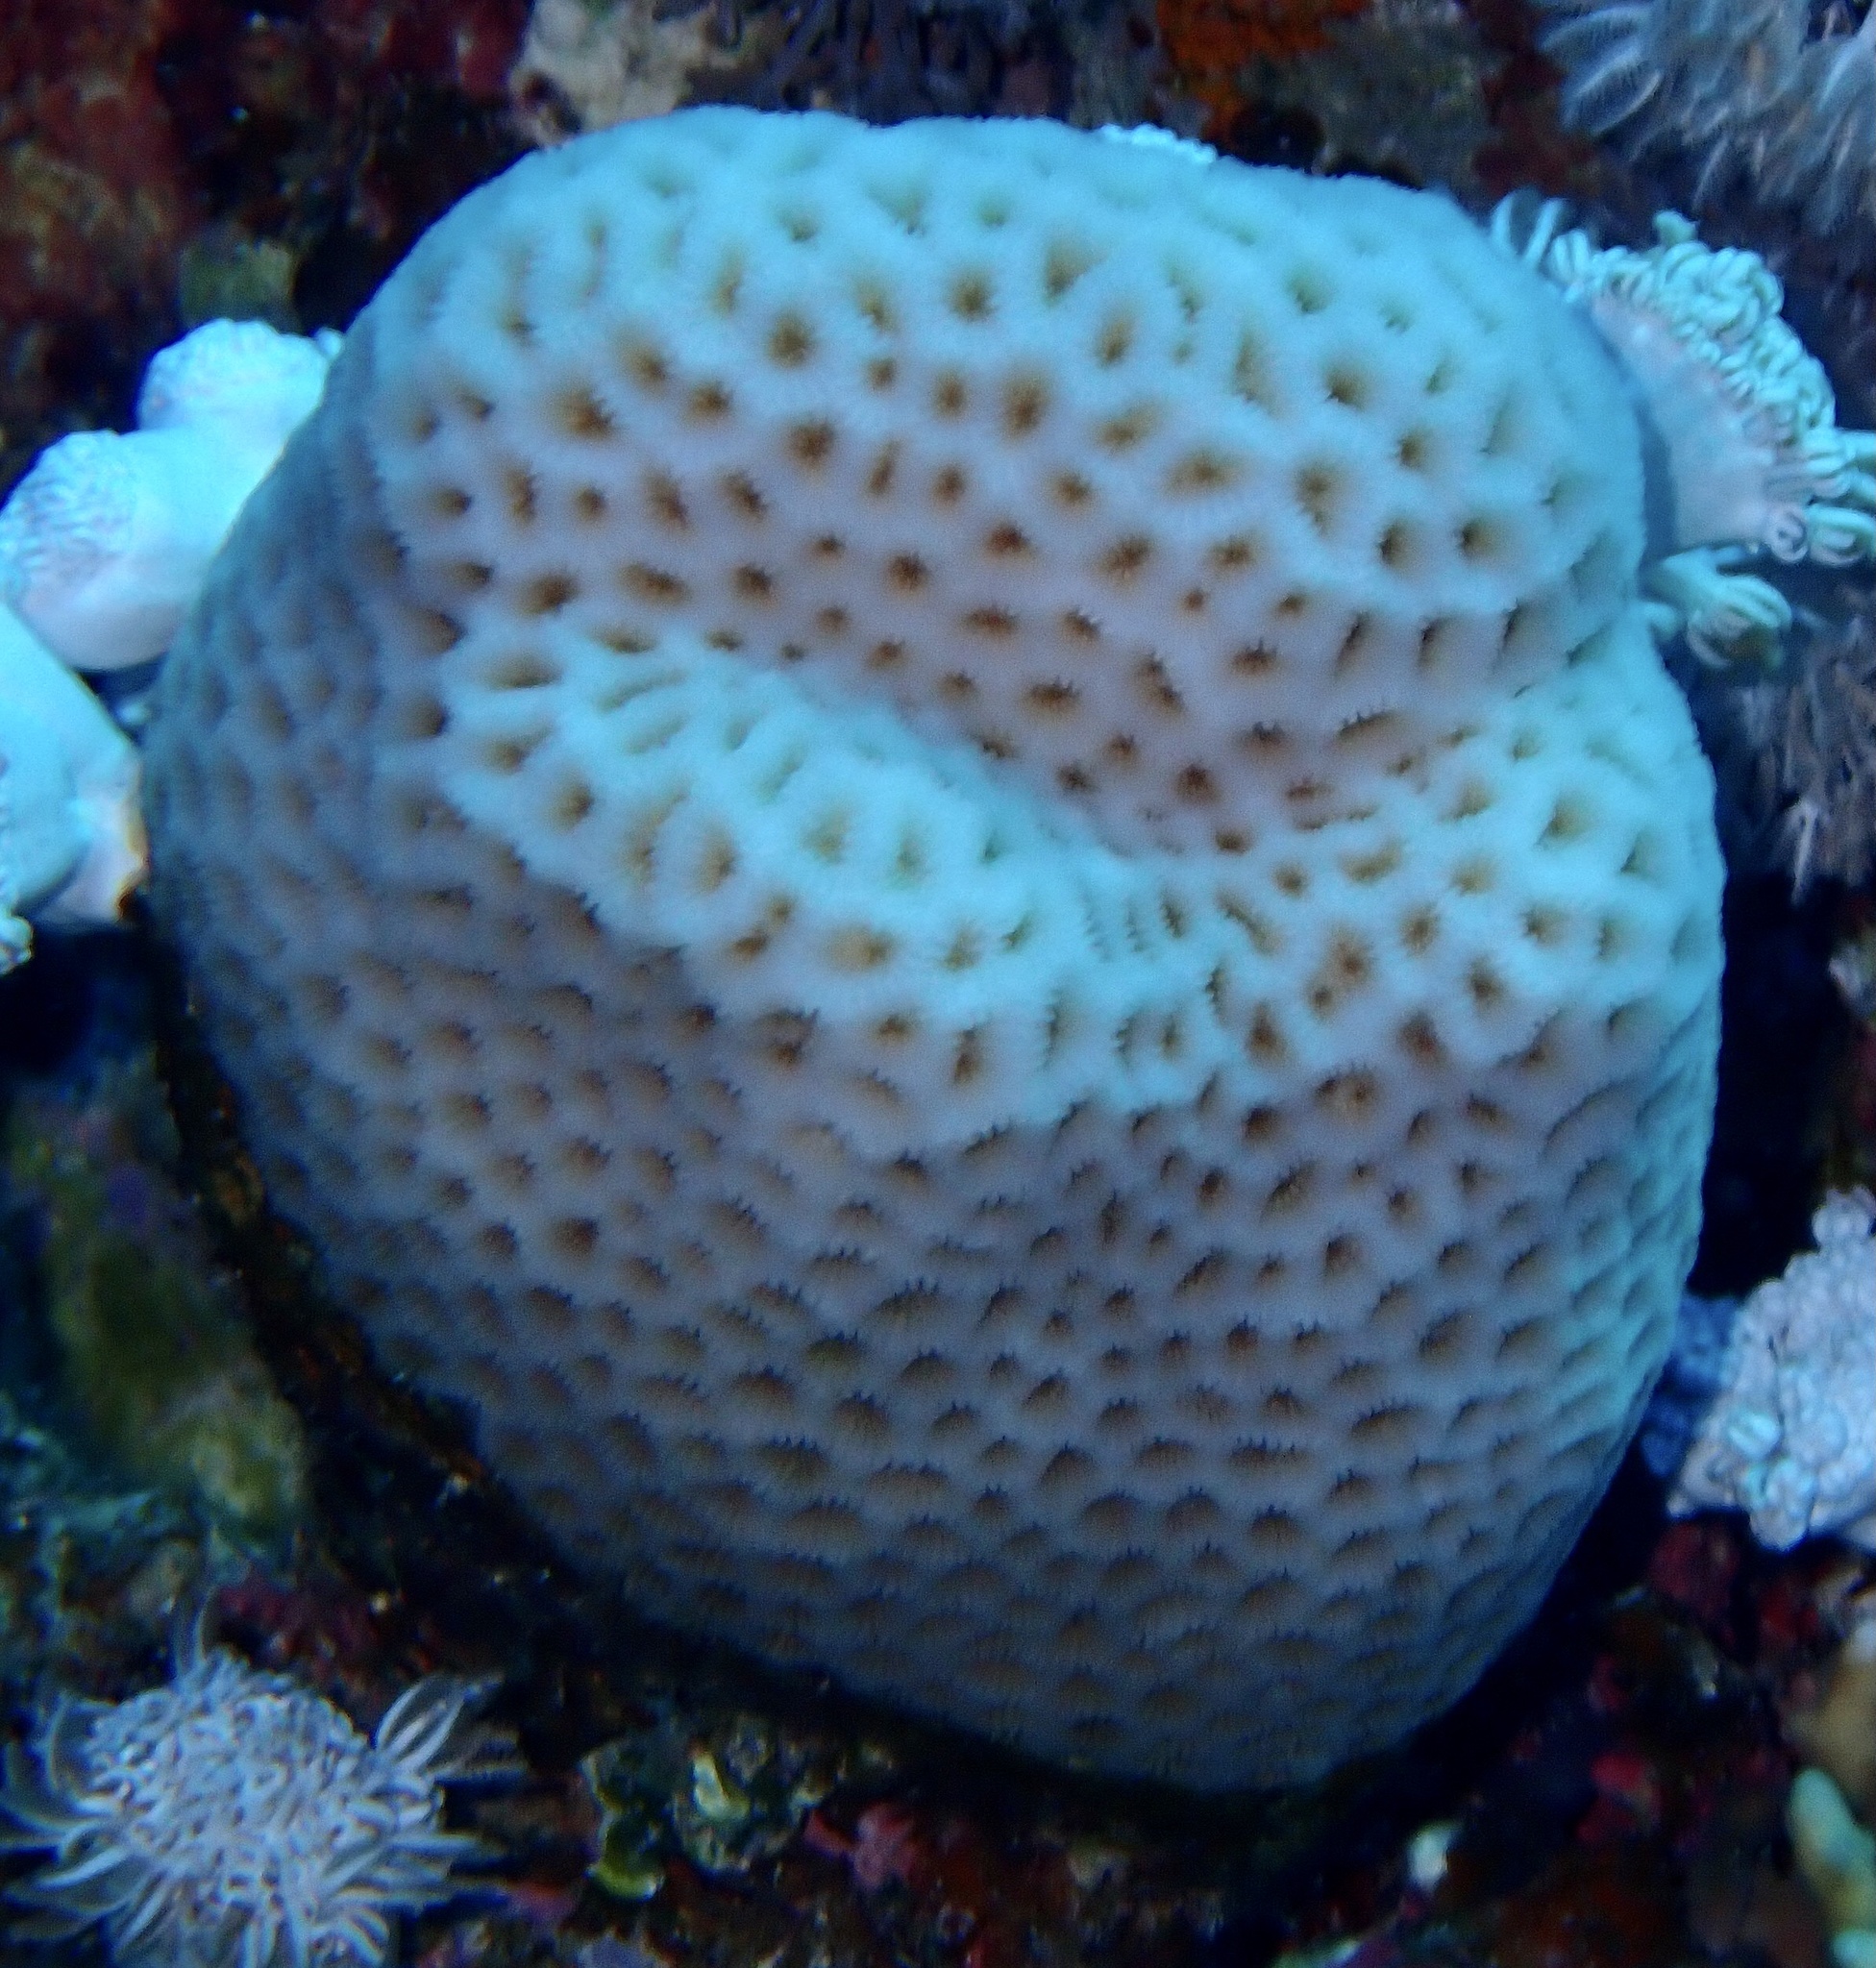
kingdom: Animalia
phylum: Cnidaria
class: Anthozoa
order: Scleractinia
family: Merulinidae
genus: Goniastrea
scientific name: Goniastrea pectinata
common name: Lesser star coral
